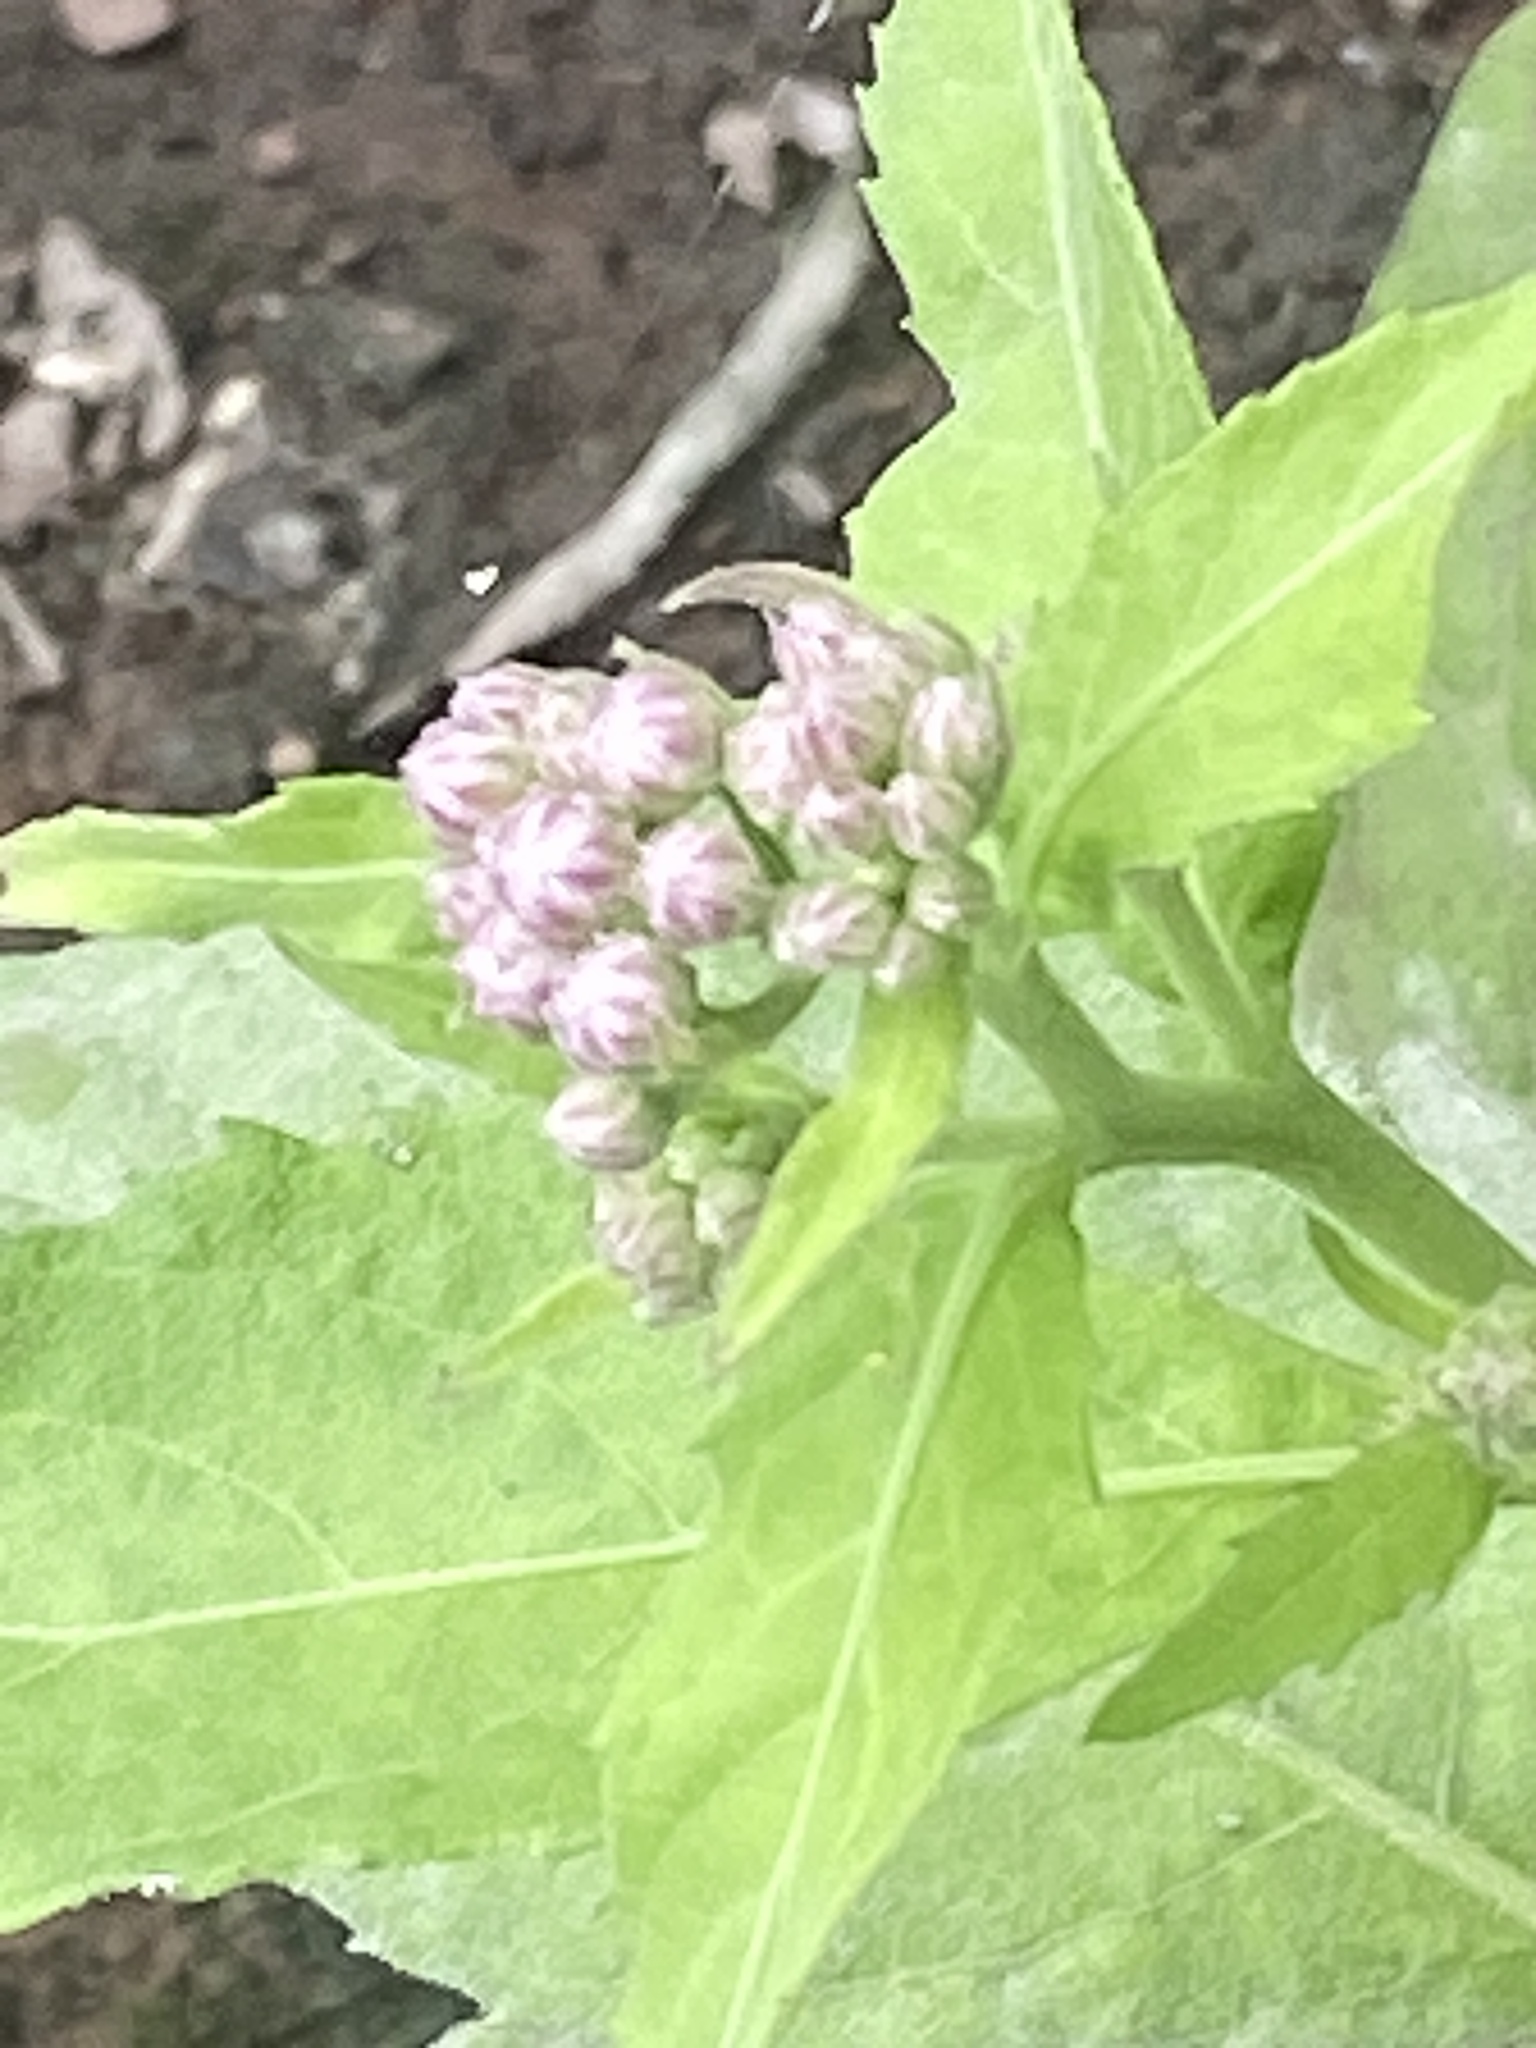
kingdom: Plantae
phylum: Tracheophyta
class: Magnoliopsida
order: Asterales
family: Asteraceae
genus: Pluchea
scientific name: Pluchea odorata
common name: Saltmarsh fleabane
